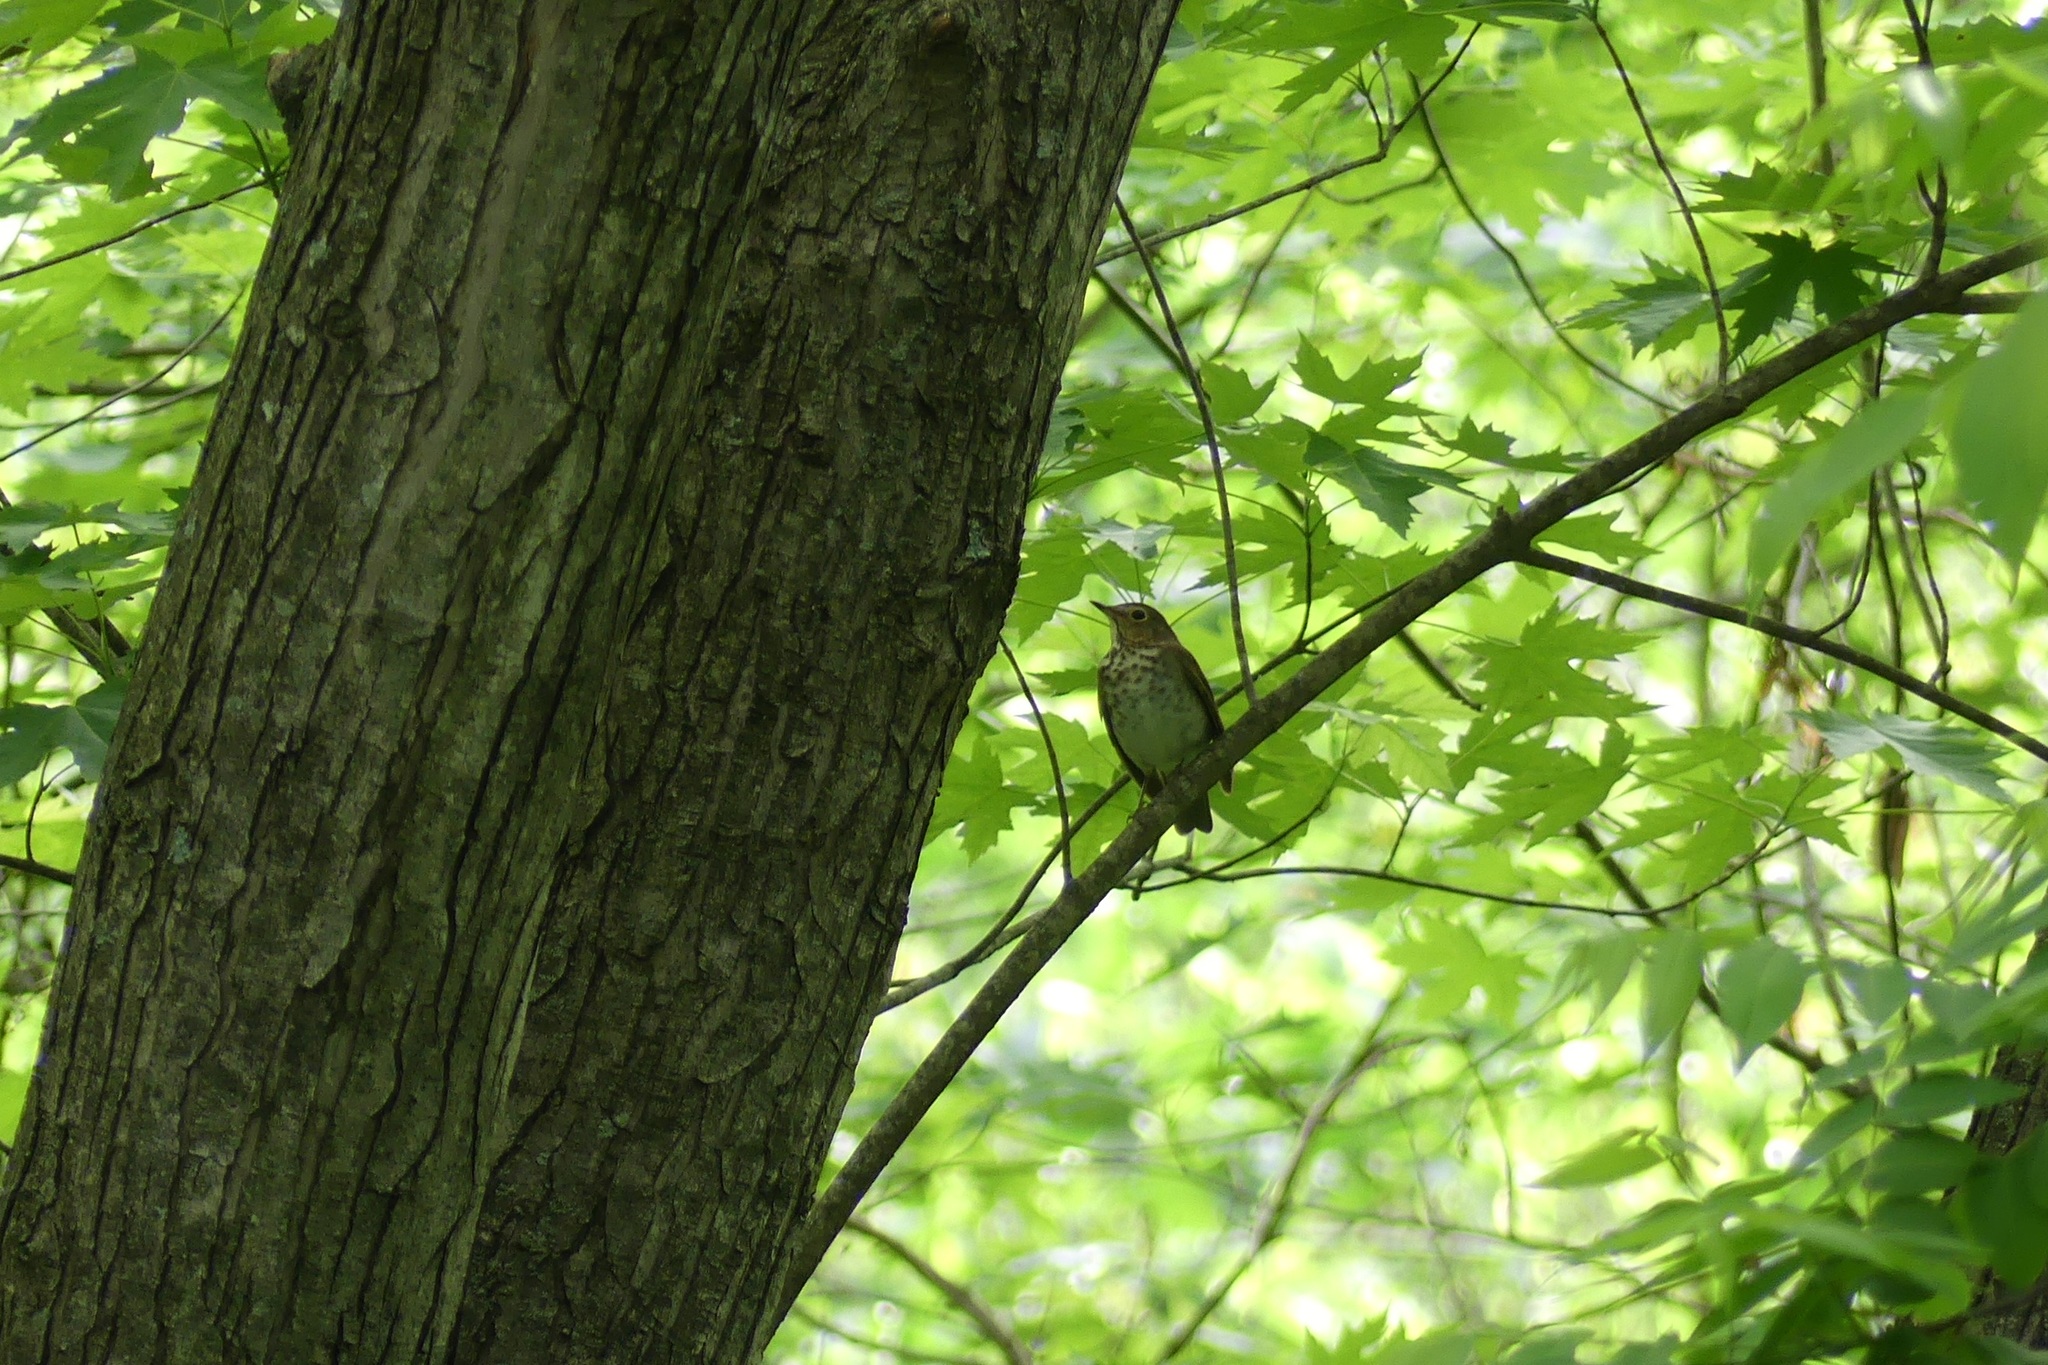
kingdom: Animalia
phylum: Chordata
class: Aves
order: Passeriformes
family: Turdidae
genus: Catharus
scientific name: Catharus ustulatus
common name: Swainson's thrush
